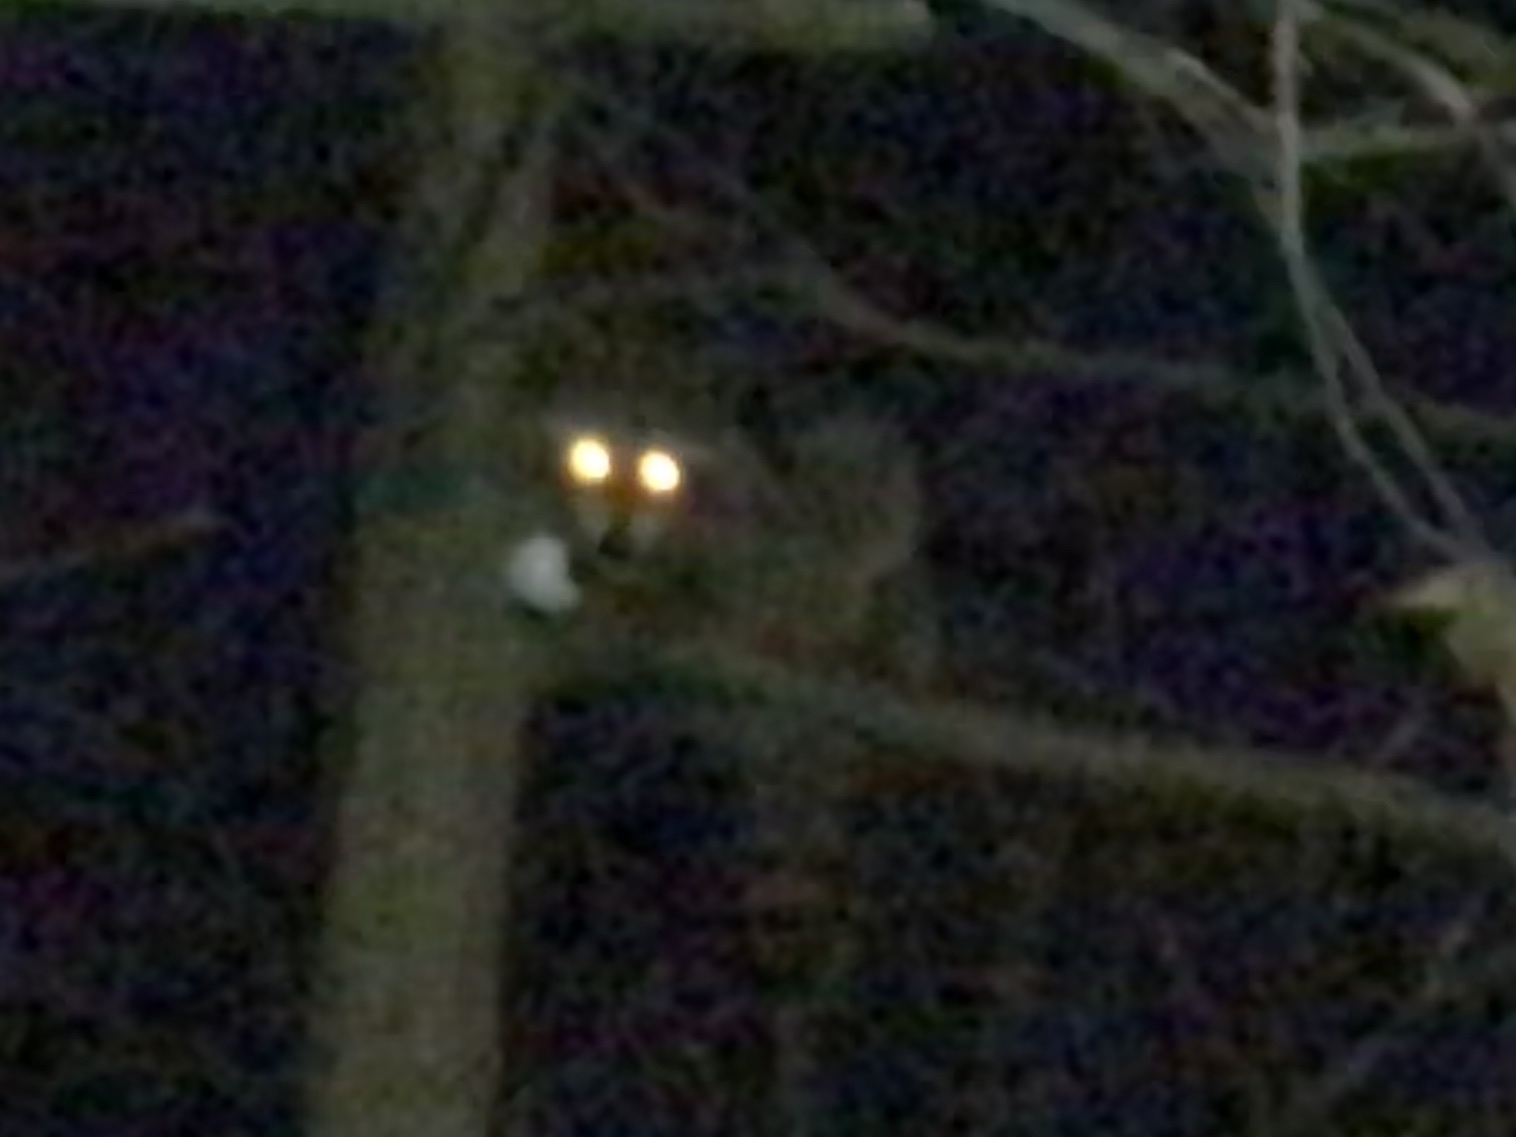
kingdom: Animalia
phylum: Chordata
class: Mammalia
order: Carnivora
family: Procyonidae
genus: Procyon
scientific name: Procyon lotor
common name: Raccoon
